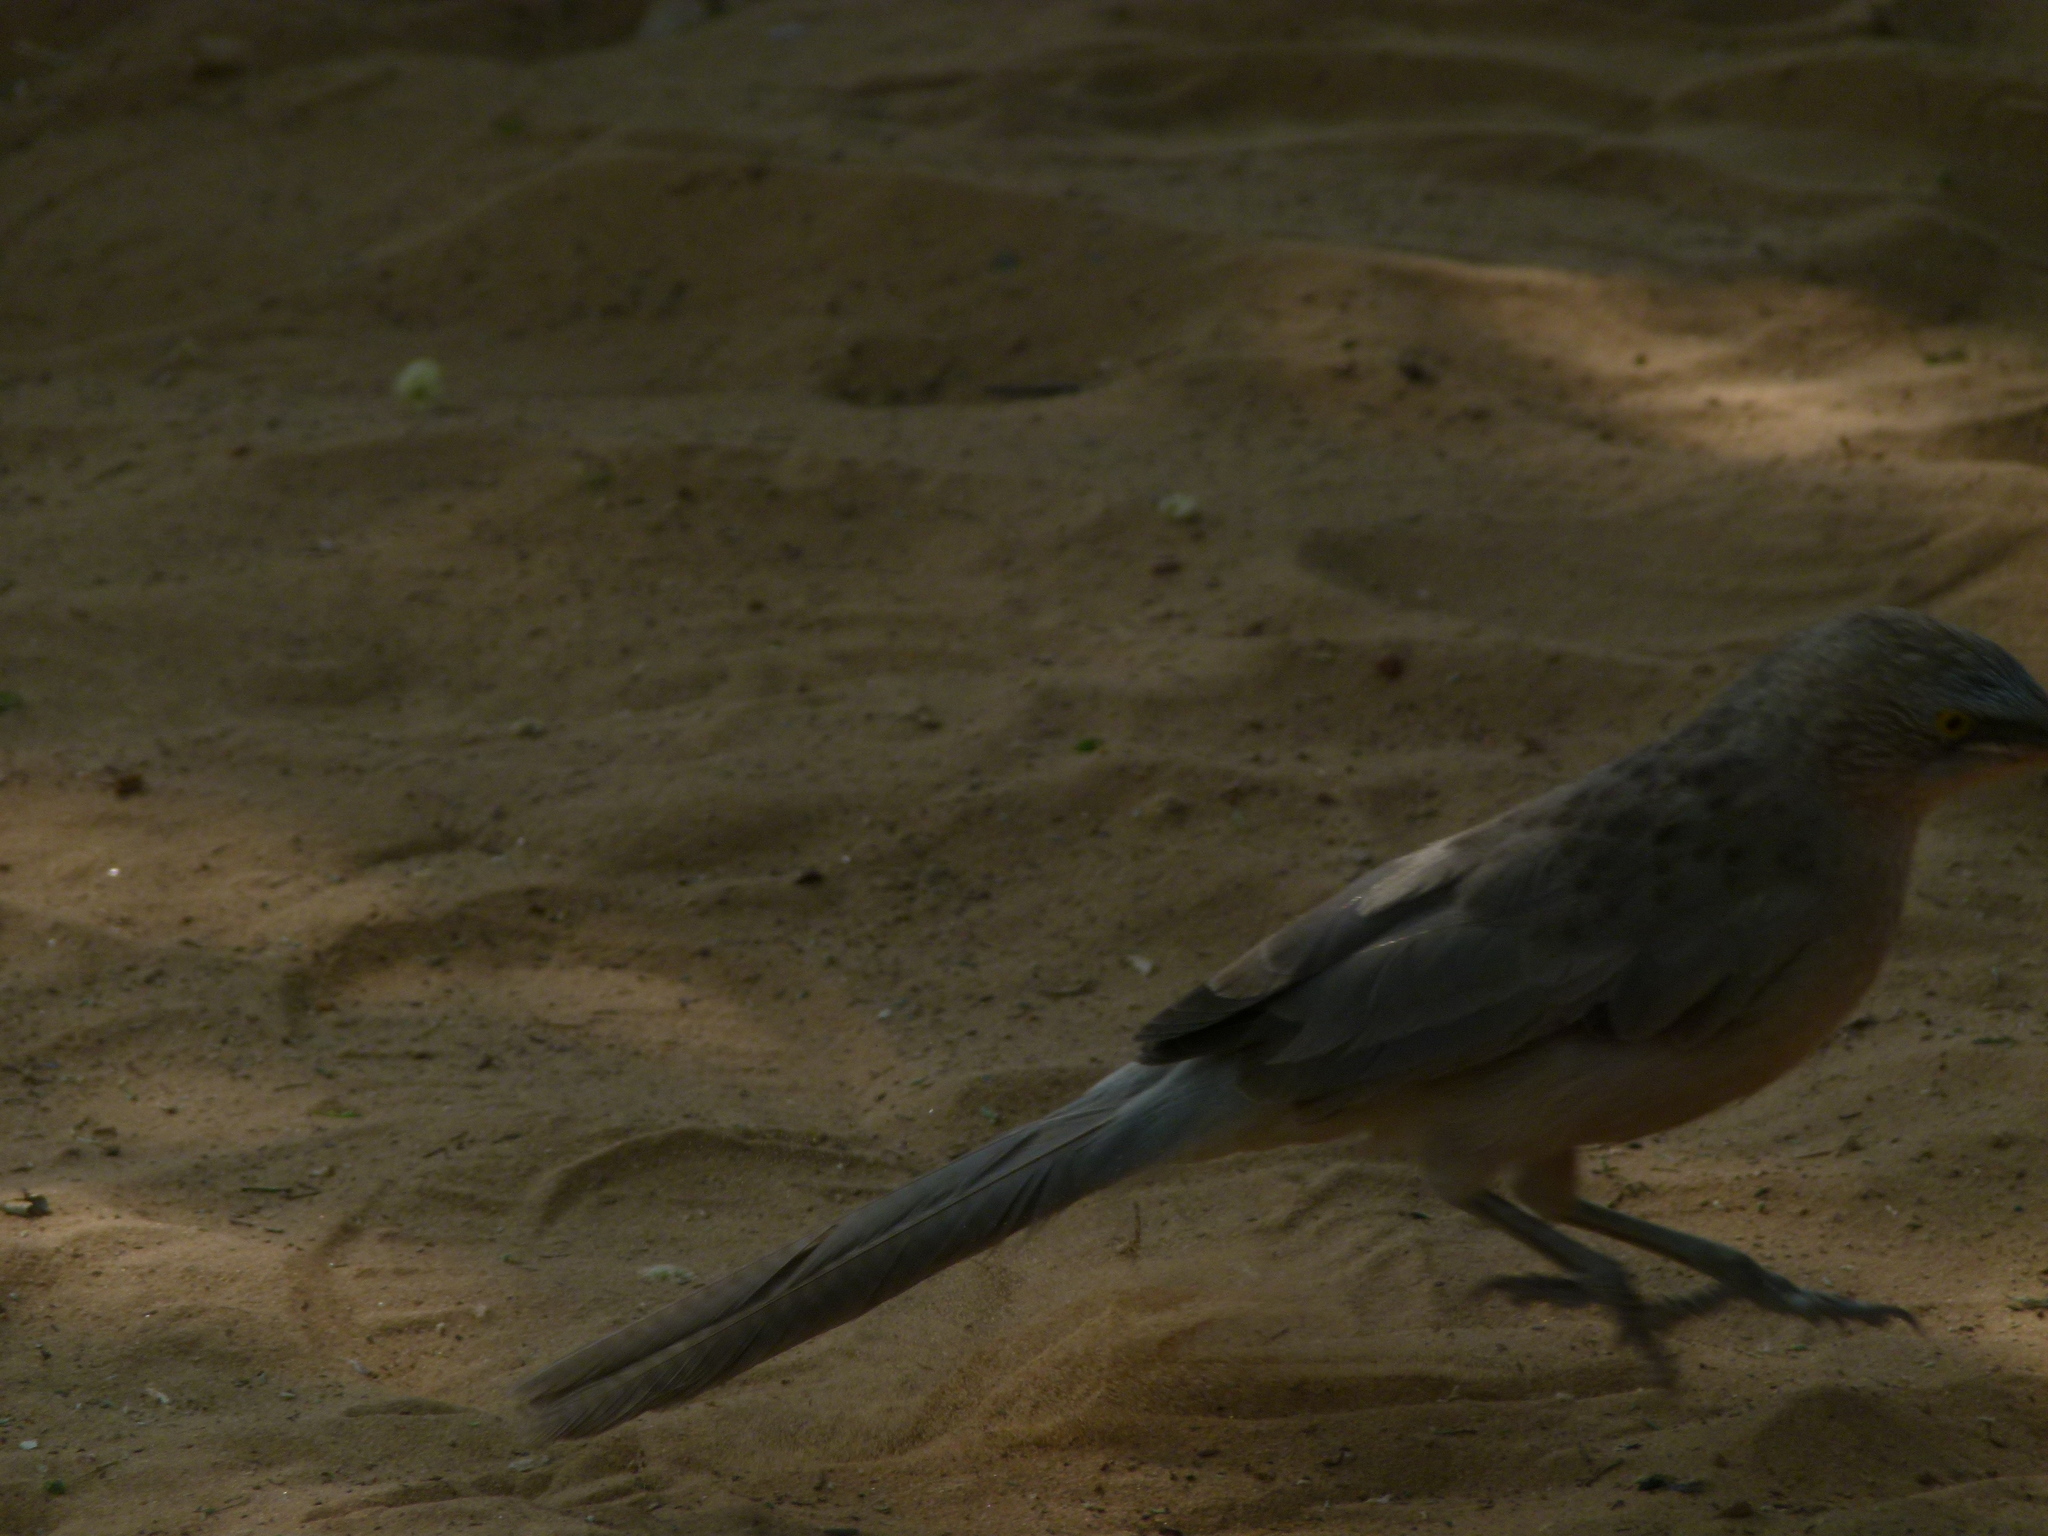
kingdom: Animalia
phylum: Chordata
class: Aves
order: Passeriformes
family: Leiothrichidae
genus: Turdoides
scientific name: Turdoides malcolmi
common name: Large grey babbler
